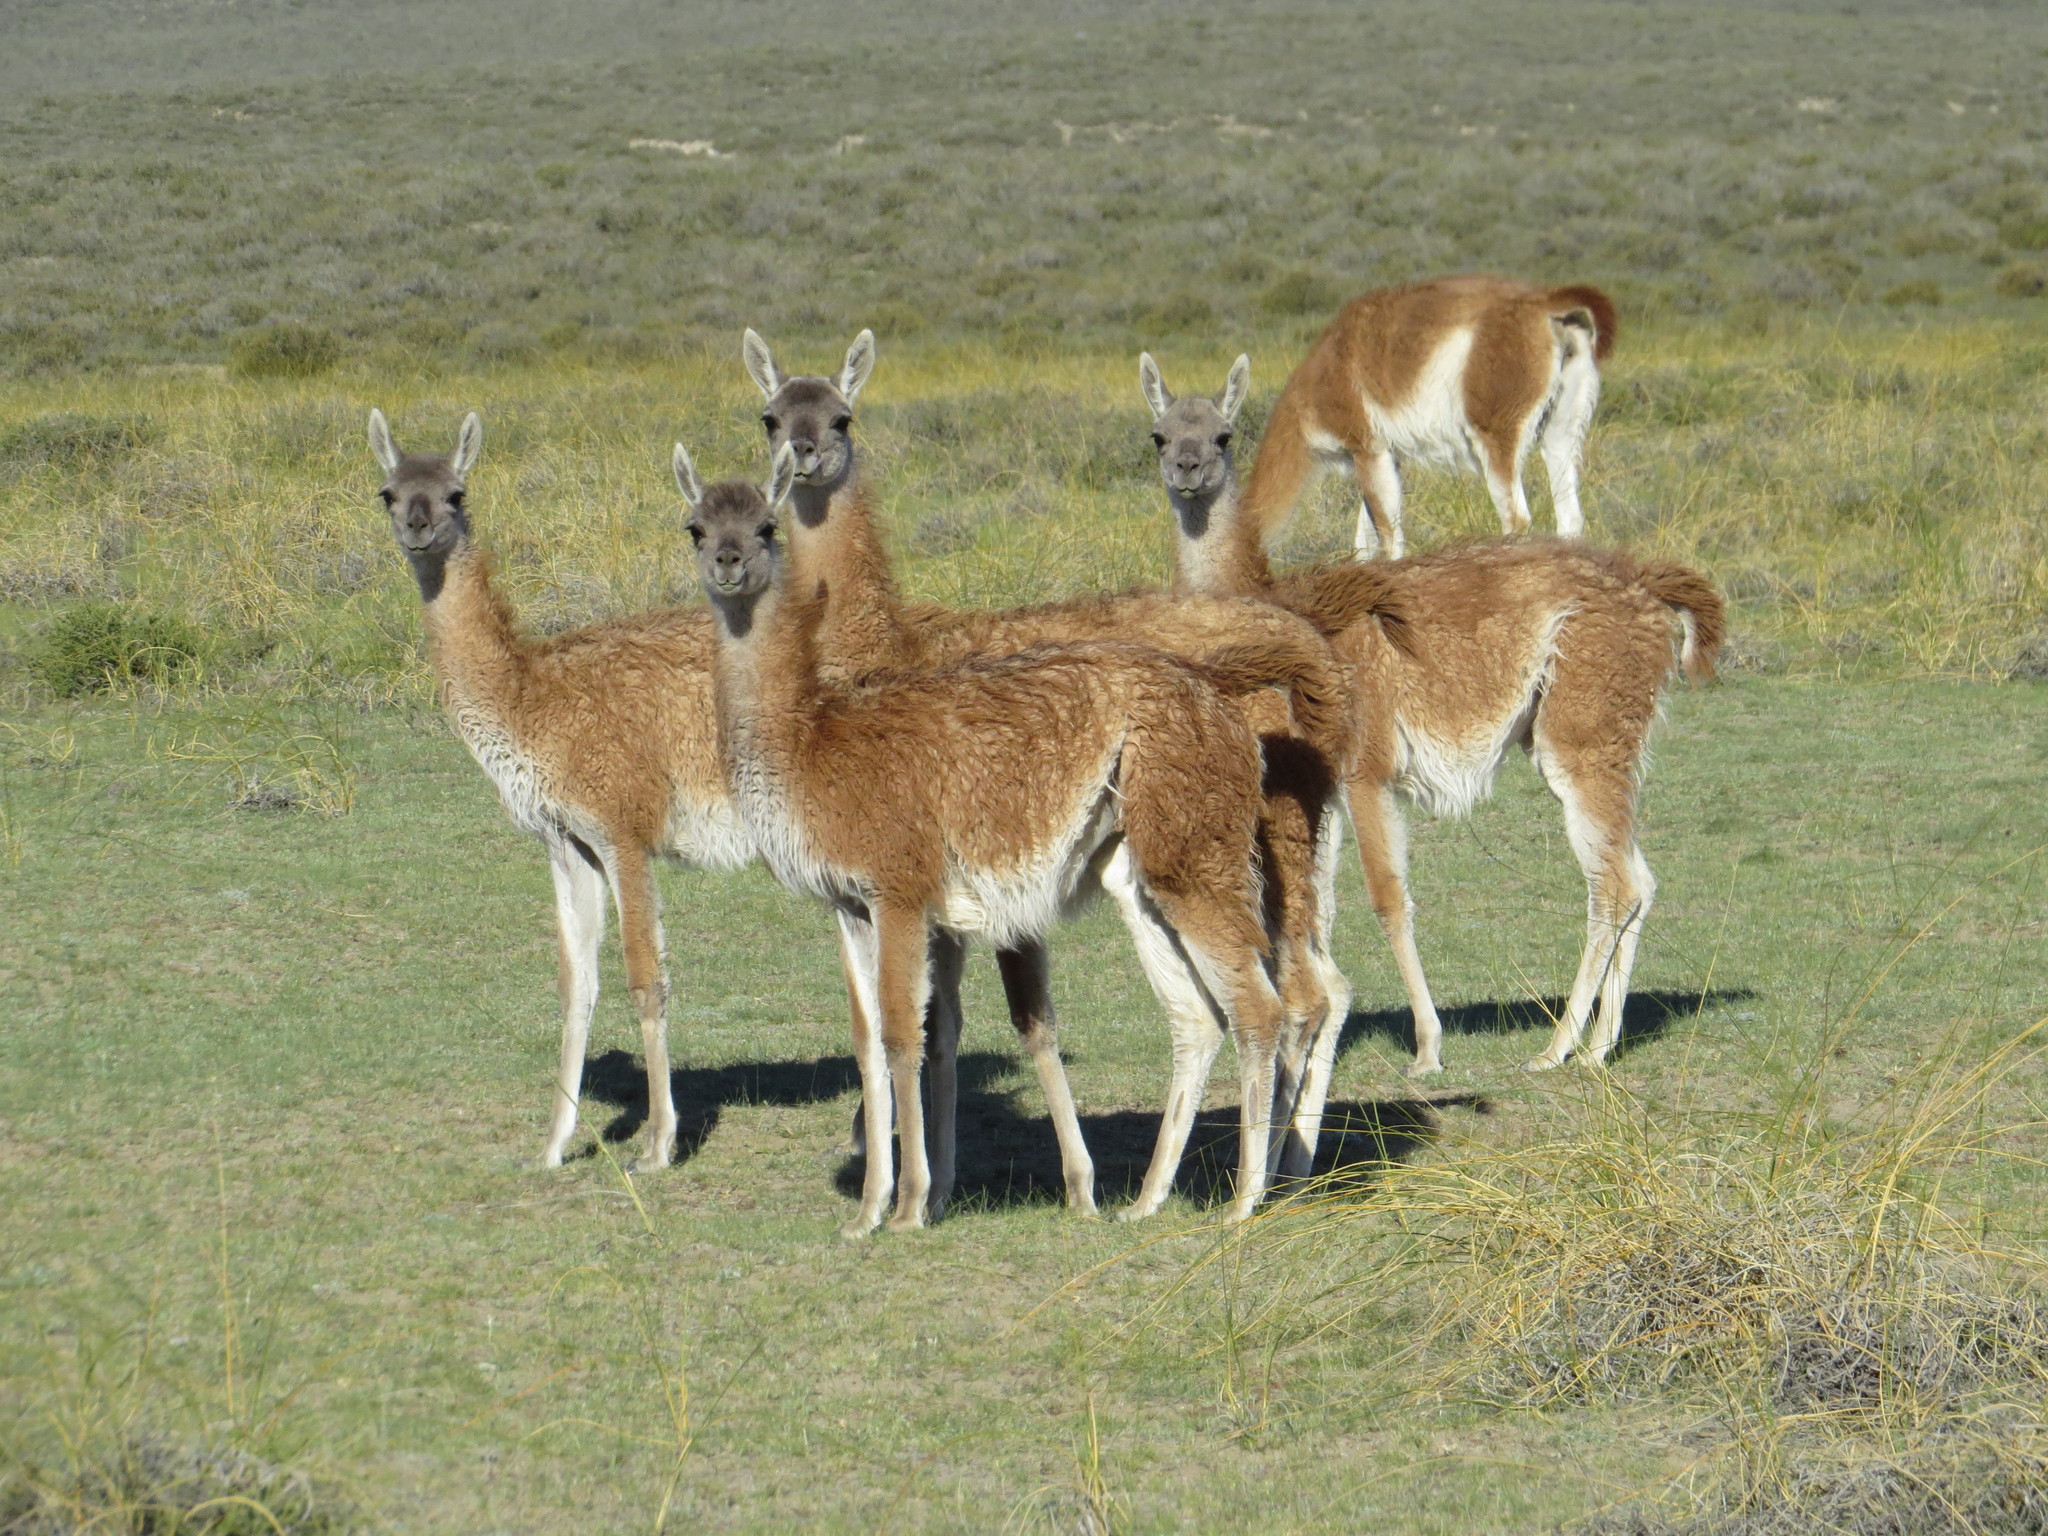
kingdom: Animalia
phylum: Chordata
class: Mammalia
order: Artiodactyla
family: Camelidae
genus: Lama
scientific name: Lama glama
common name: Llama
